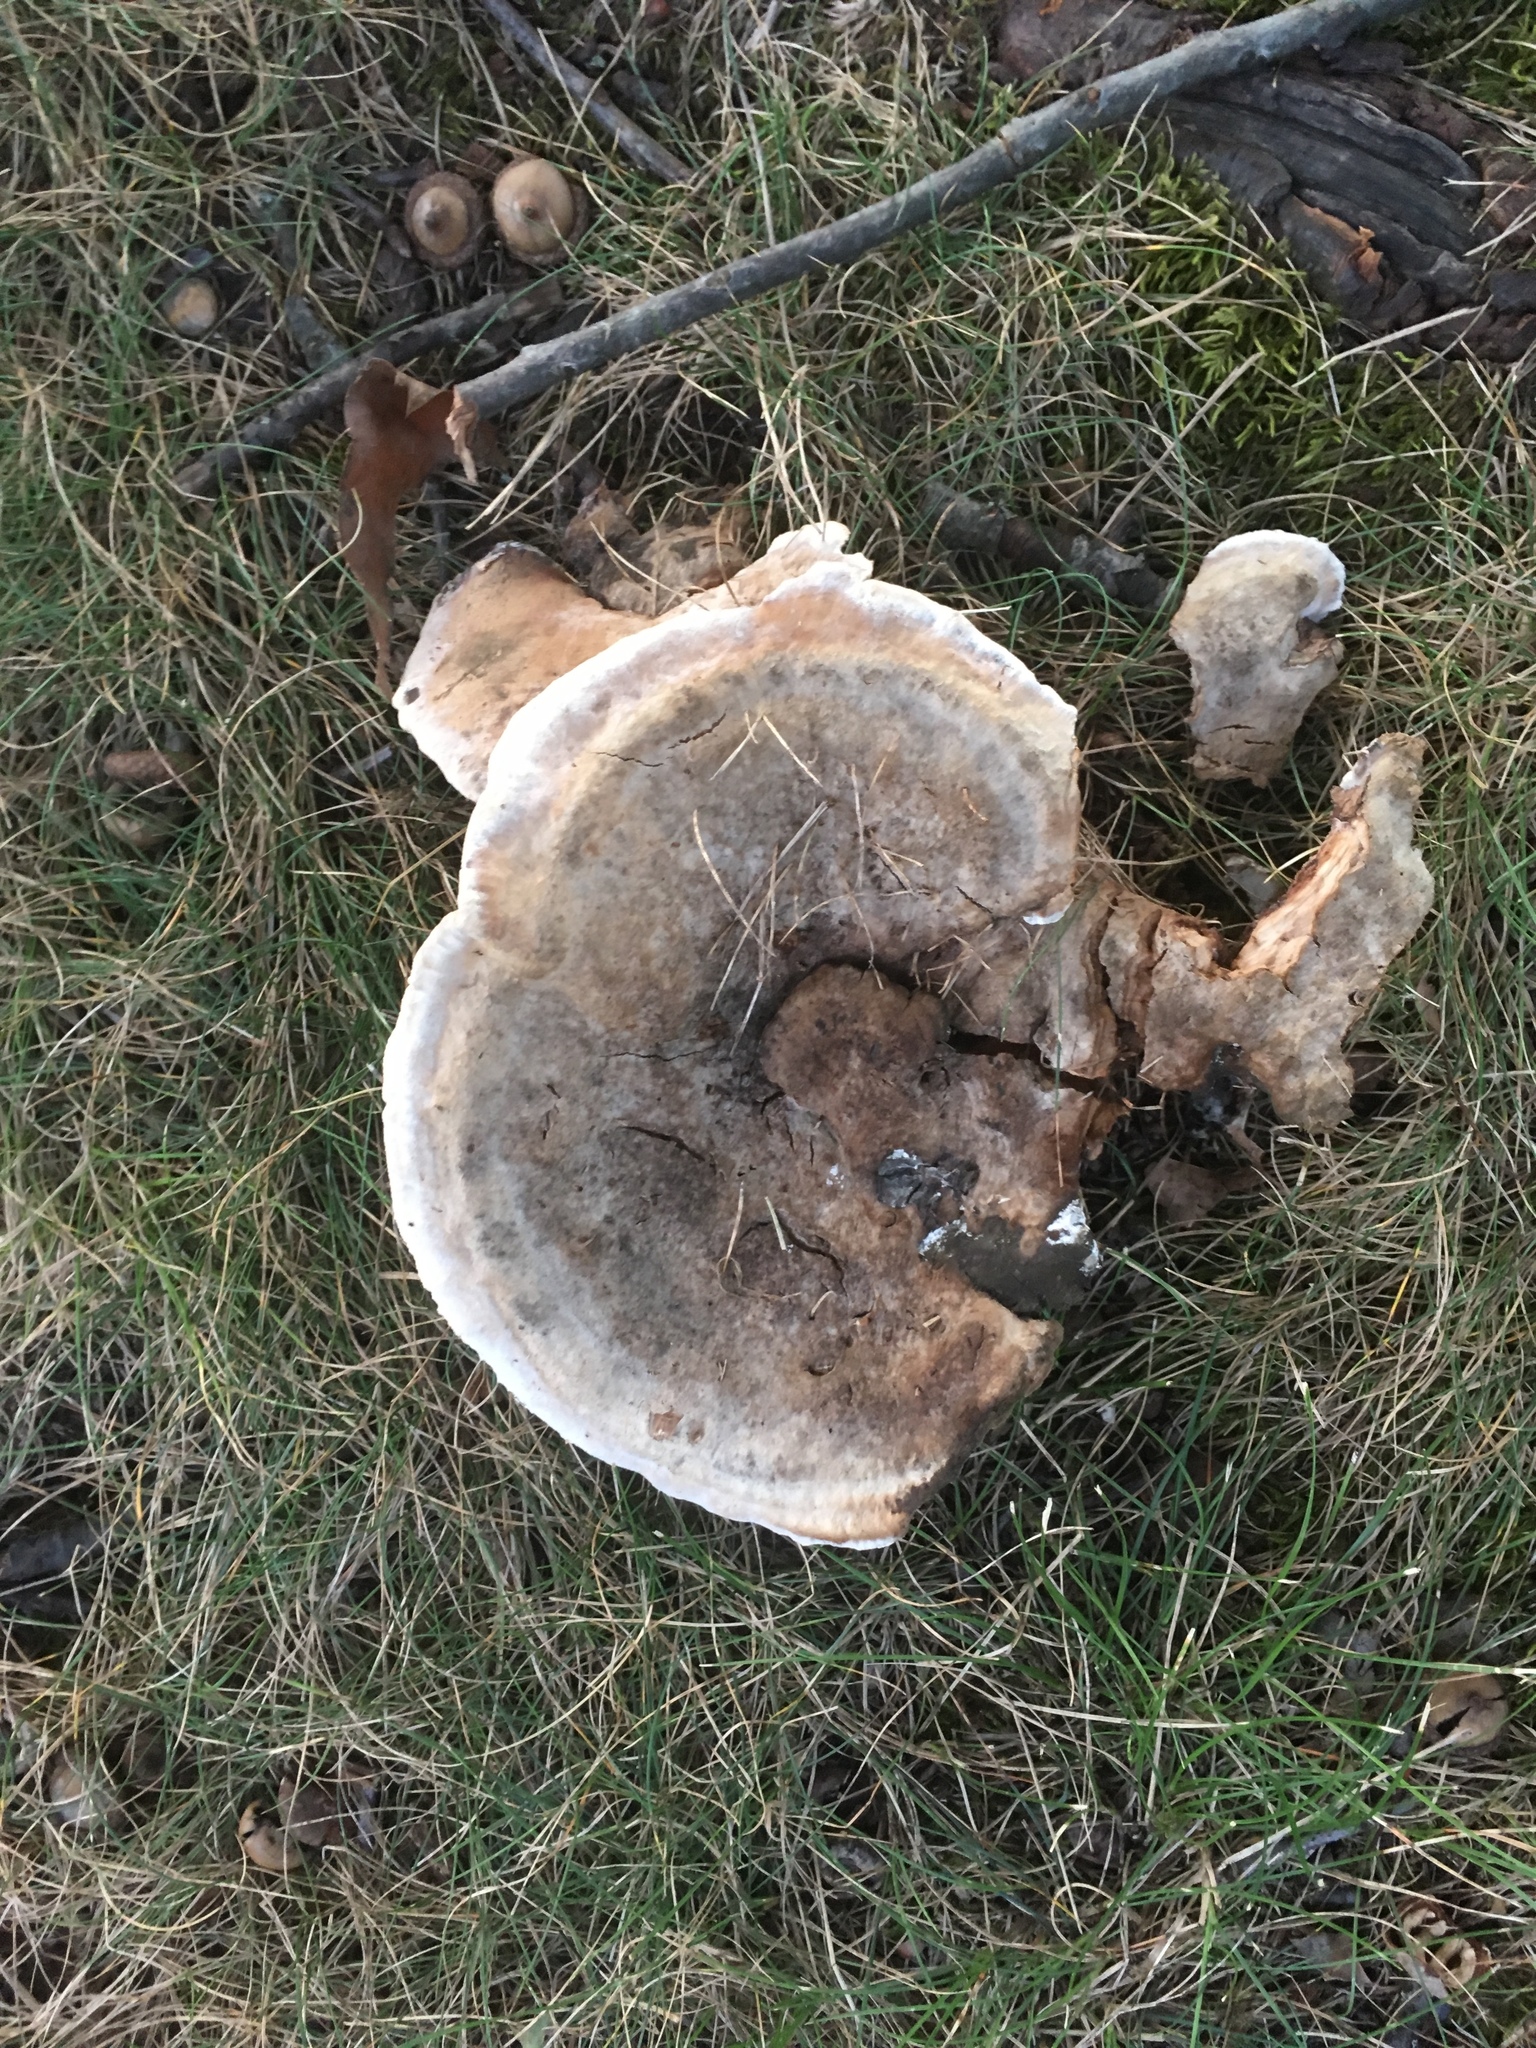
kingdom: Fungi
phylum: Basidiomycota
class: Agaricomycetes
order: Hymenochaetales
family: Hymenochaetaceae
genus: Pseudoinonotus
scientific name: Pseudoinonotus dryadeus
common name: Oak bracket
